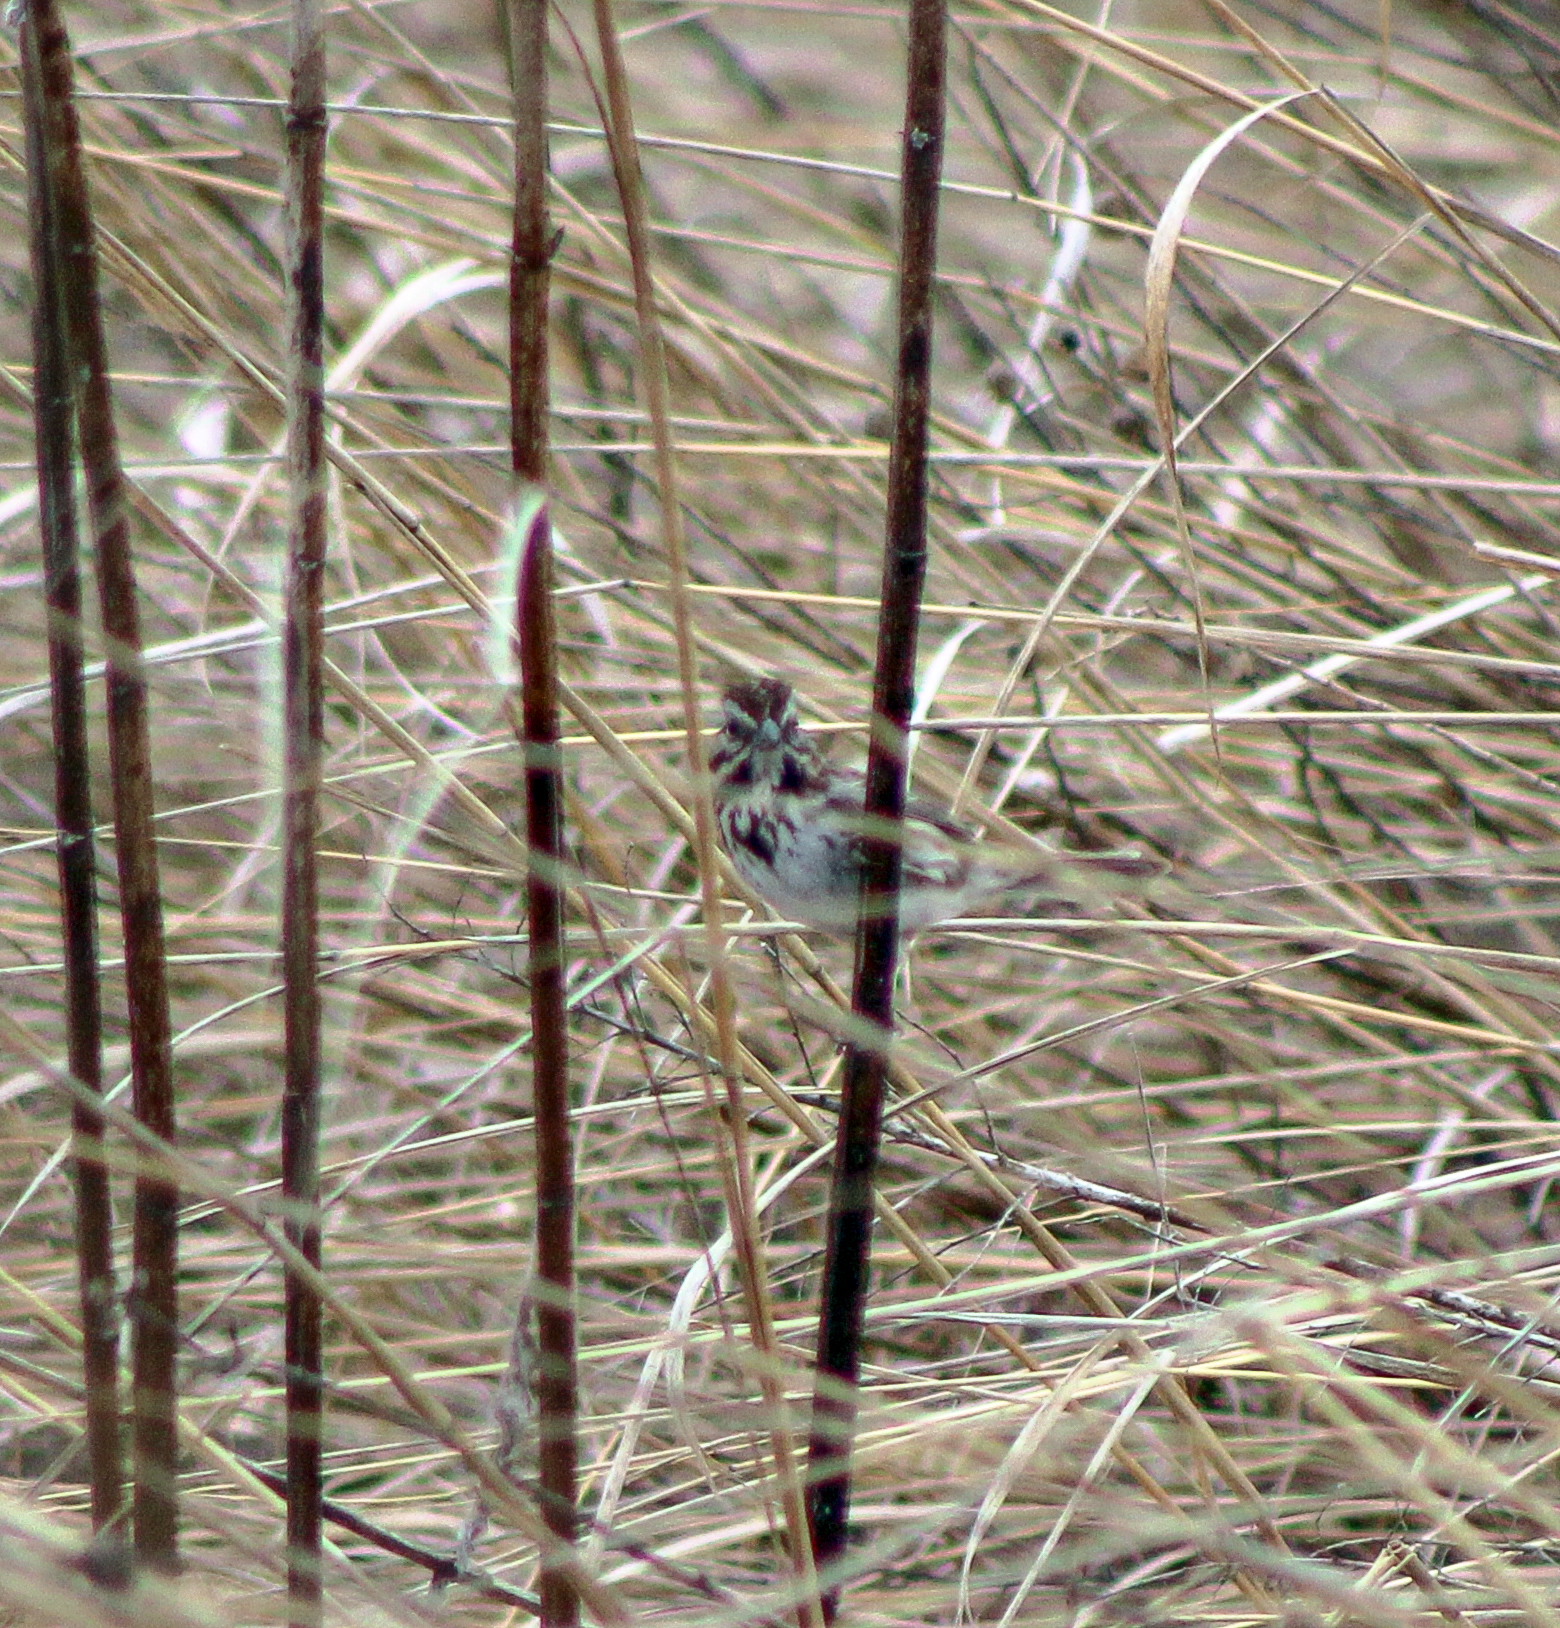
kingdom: Animalia
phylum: Chordata
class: Aves
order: Passeriformes
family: Passerellidae
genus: Melospiza
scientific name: Melospiza melodia
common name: Song sparrow
